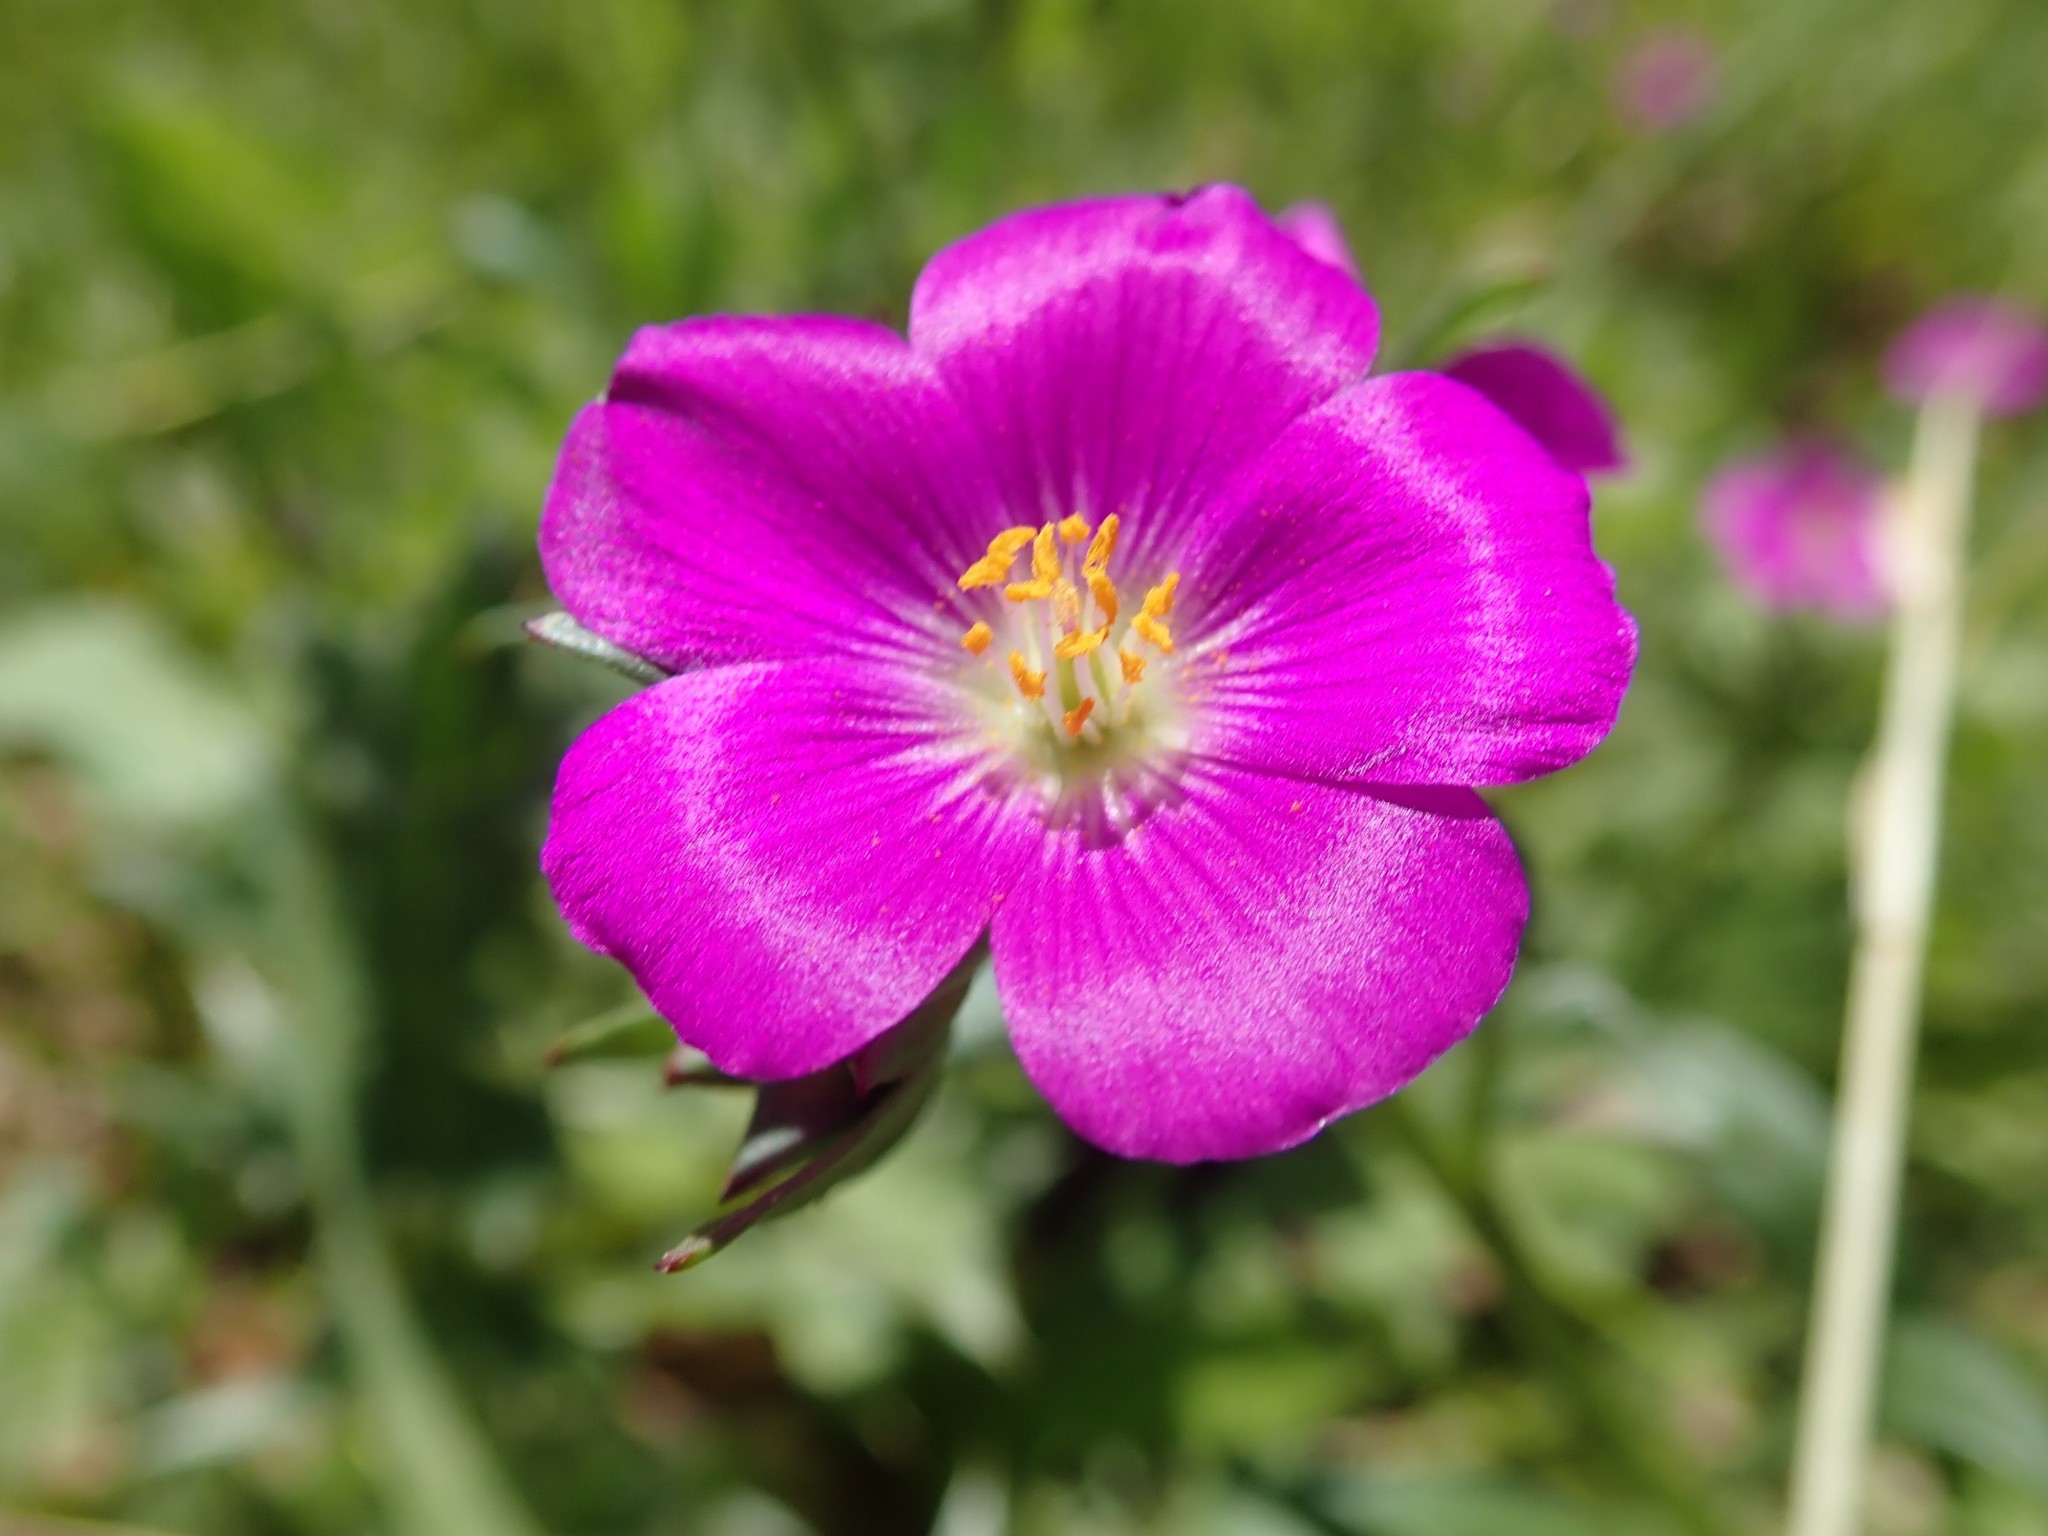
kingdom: Plantae
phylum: Tracheophyta
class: Magnoliopsida
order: Caryophyllales
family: Montiaceae
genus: Calandrinia
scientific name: Calandrinia menziesii
